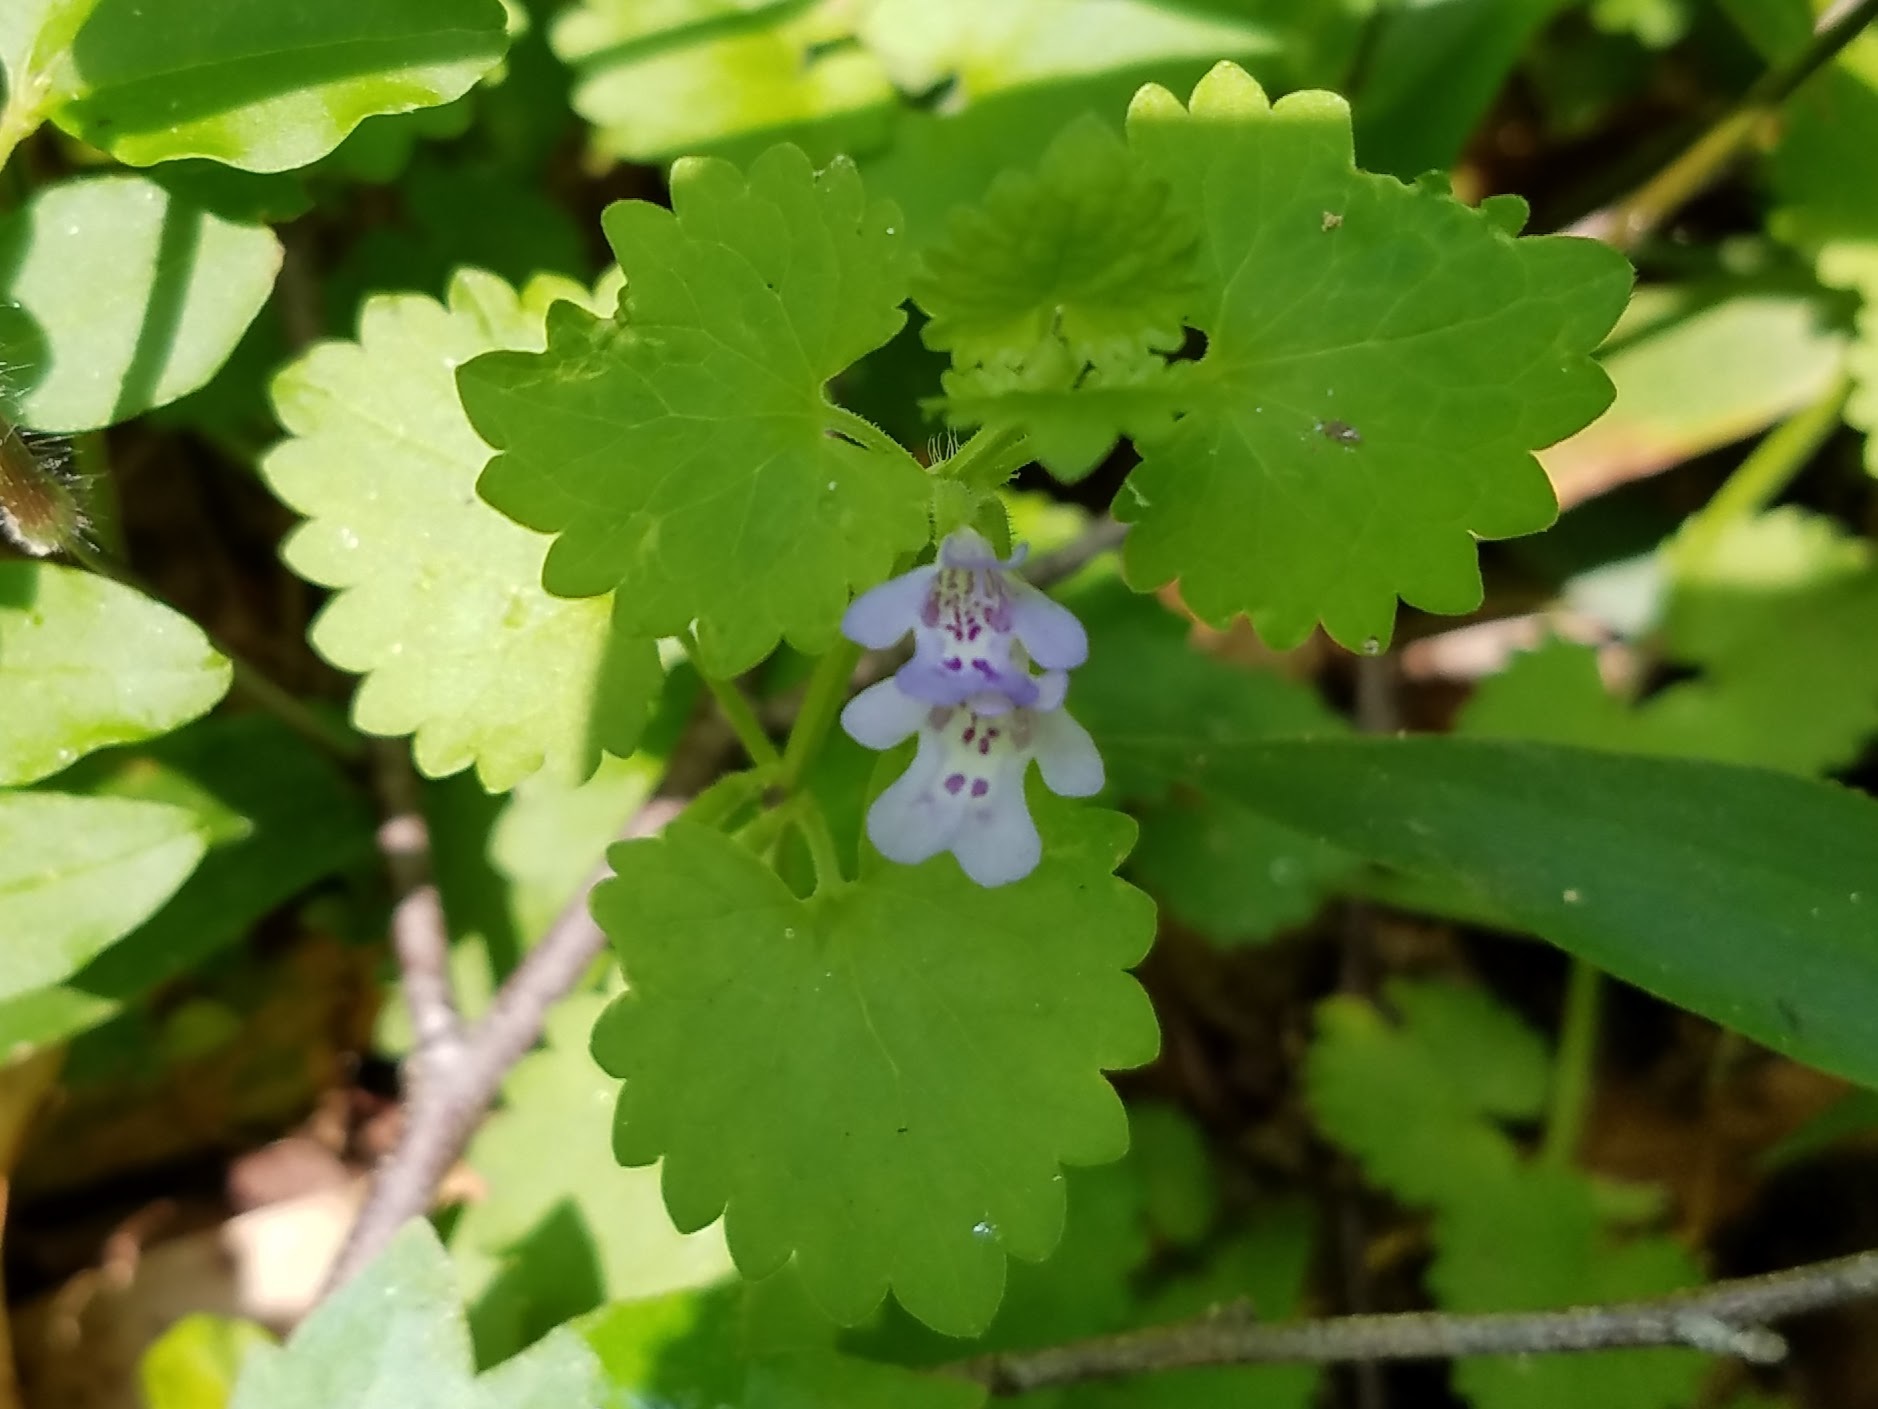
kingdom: Plantae
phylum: Tracheophyta
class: Magnoliopsida
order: Lamiales
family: Lamiaceae
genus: Glechoma
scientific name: Glechoma hederacea
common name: Ground ivy
